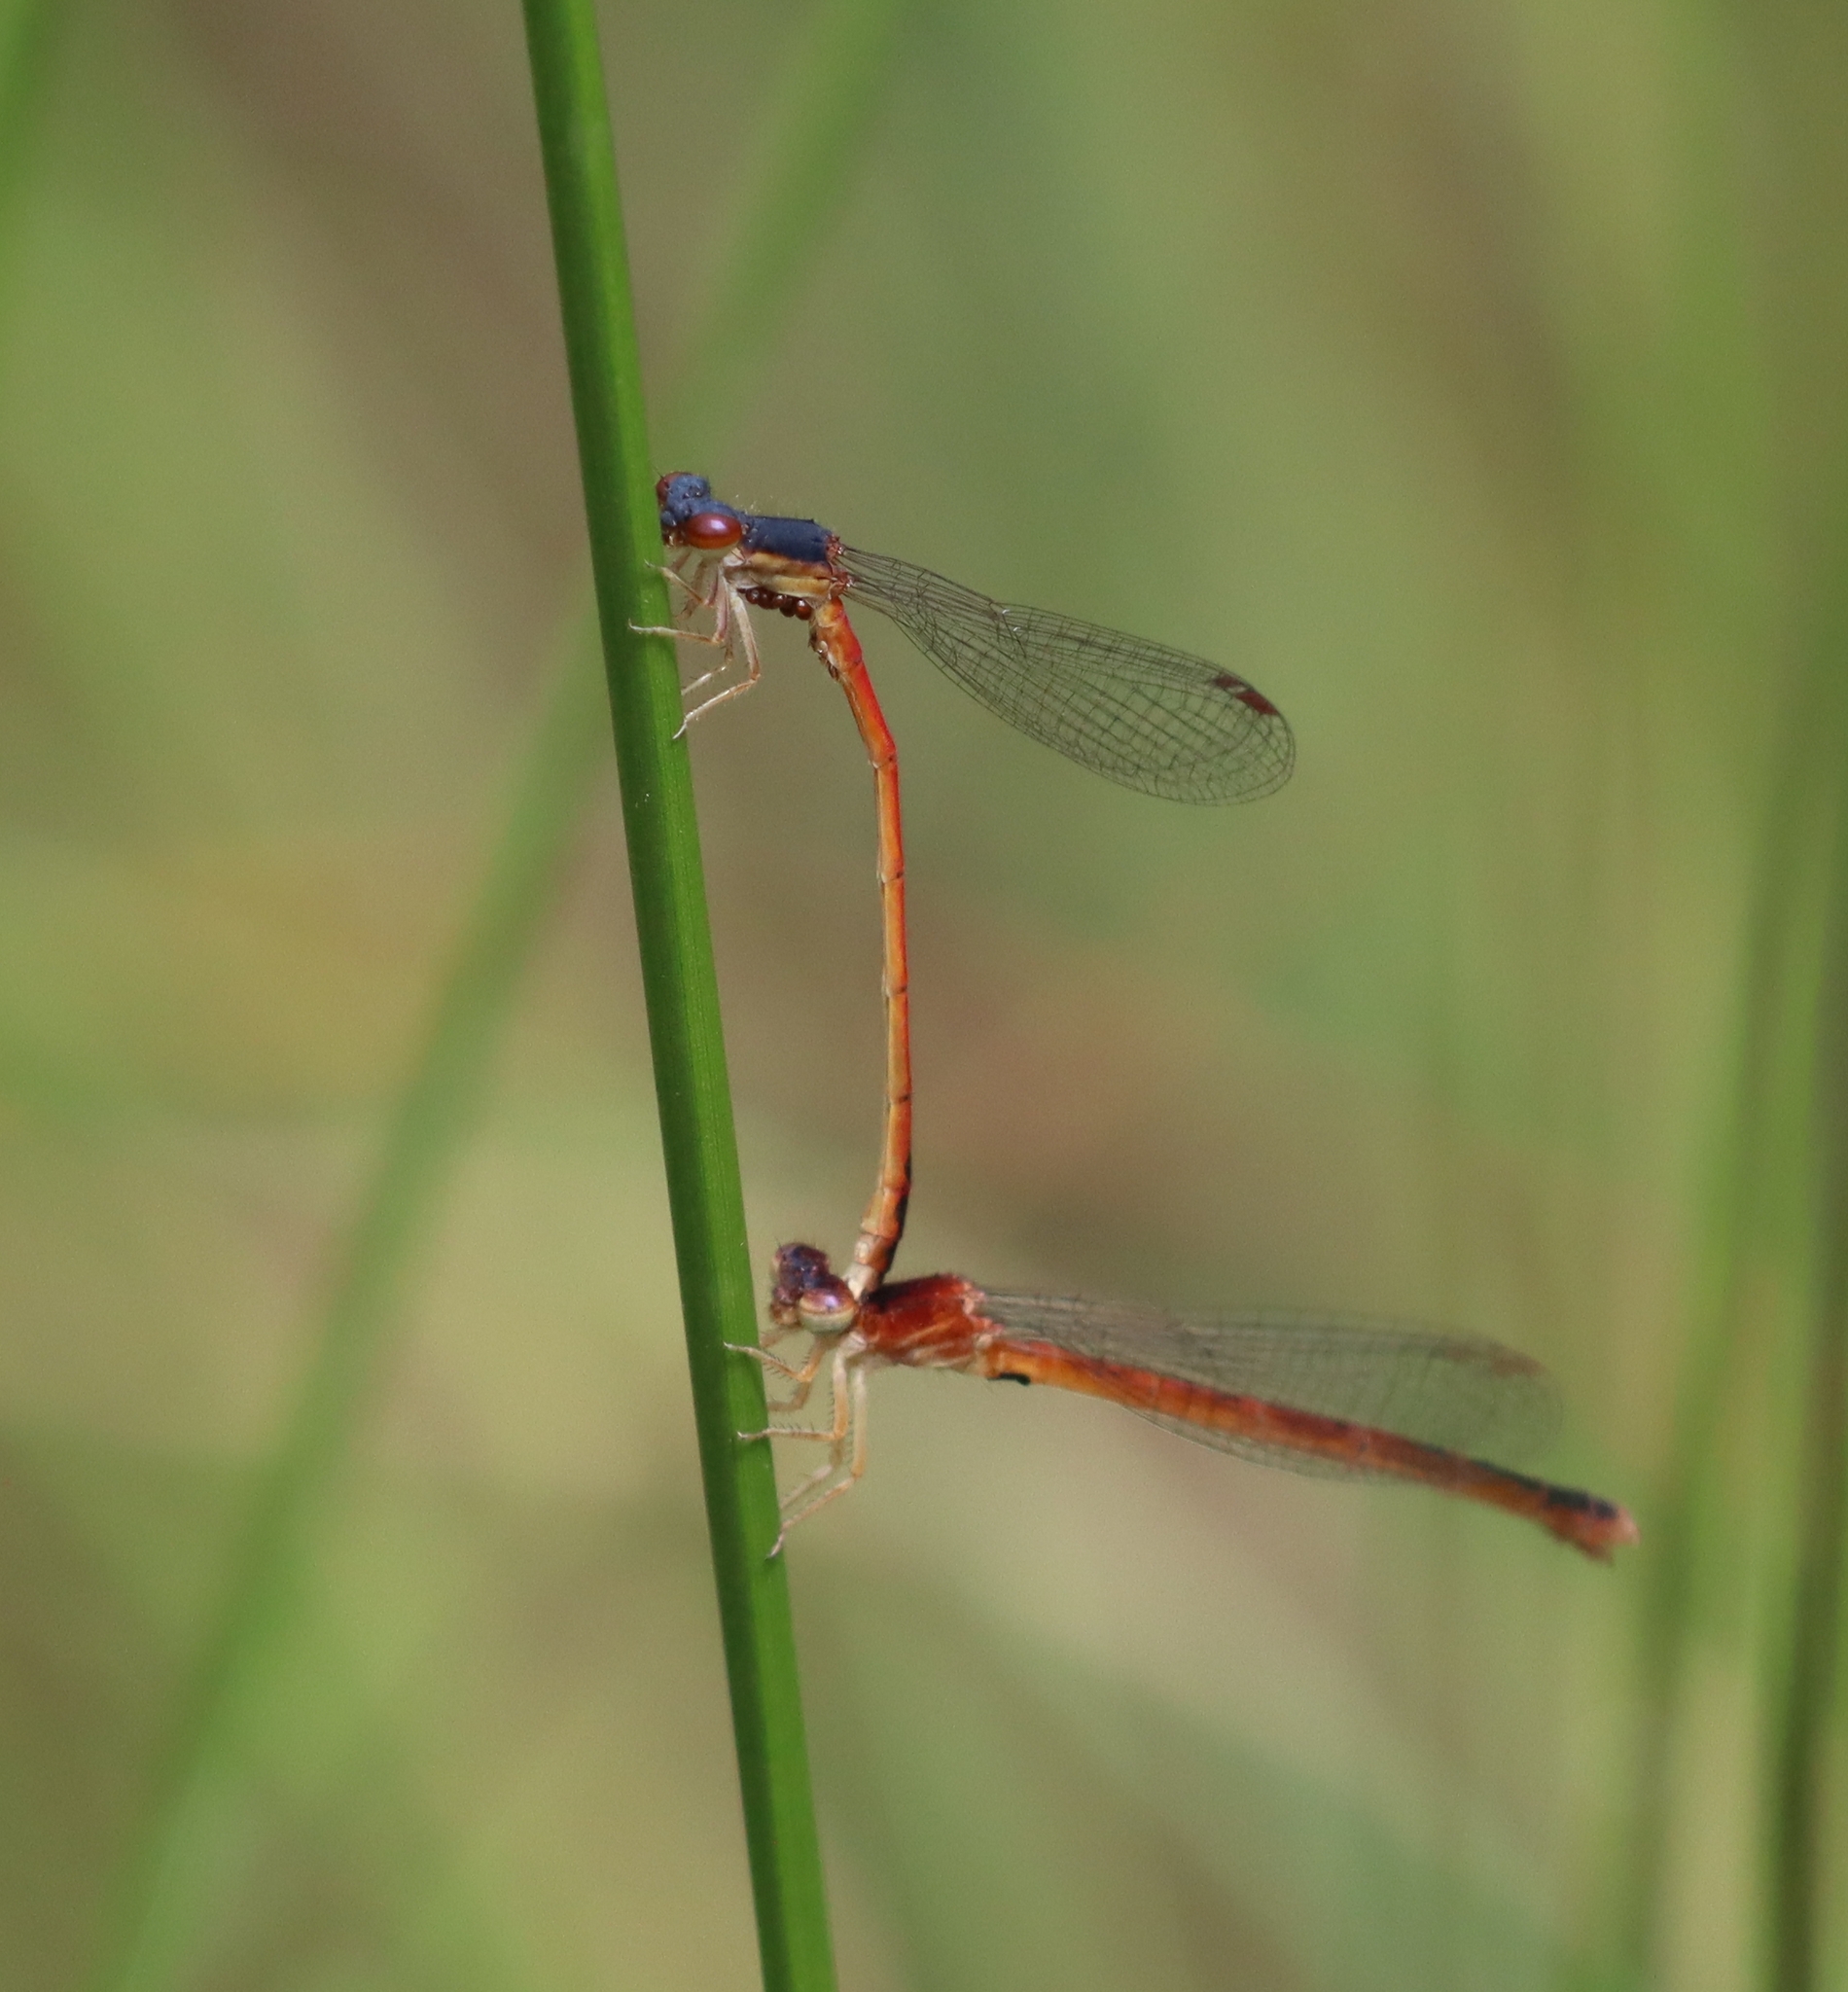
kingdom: Animalia
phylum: Arthropoda
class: Insecta
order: Odonata
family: Coenagrionidae
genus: Amphiagrion
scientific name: Amphiagrion saucium
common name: Eastern red damsel
